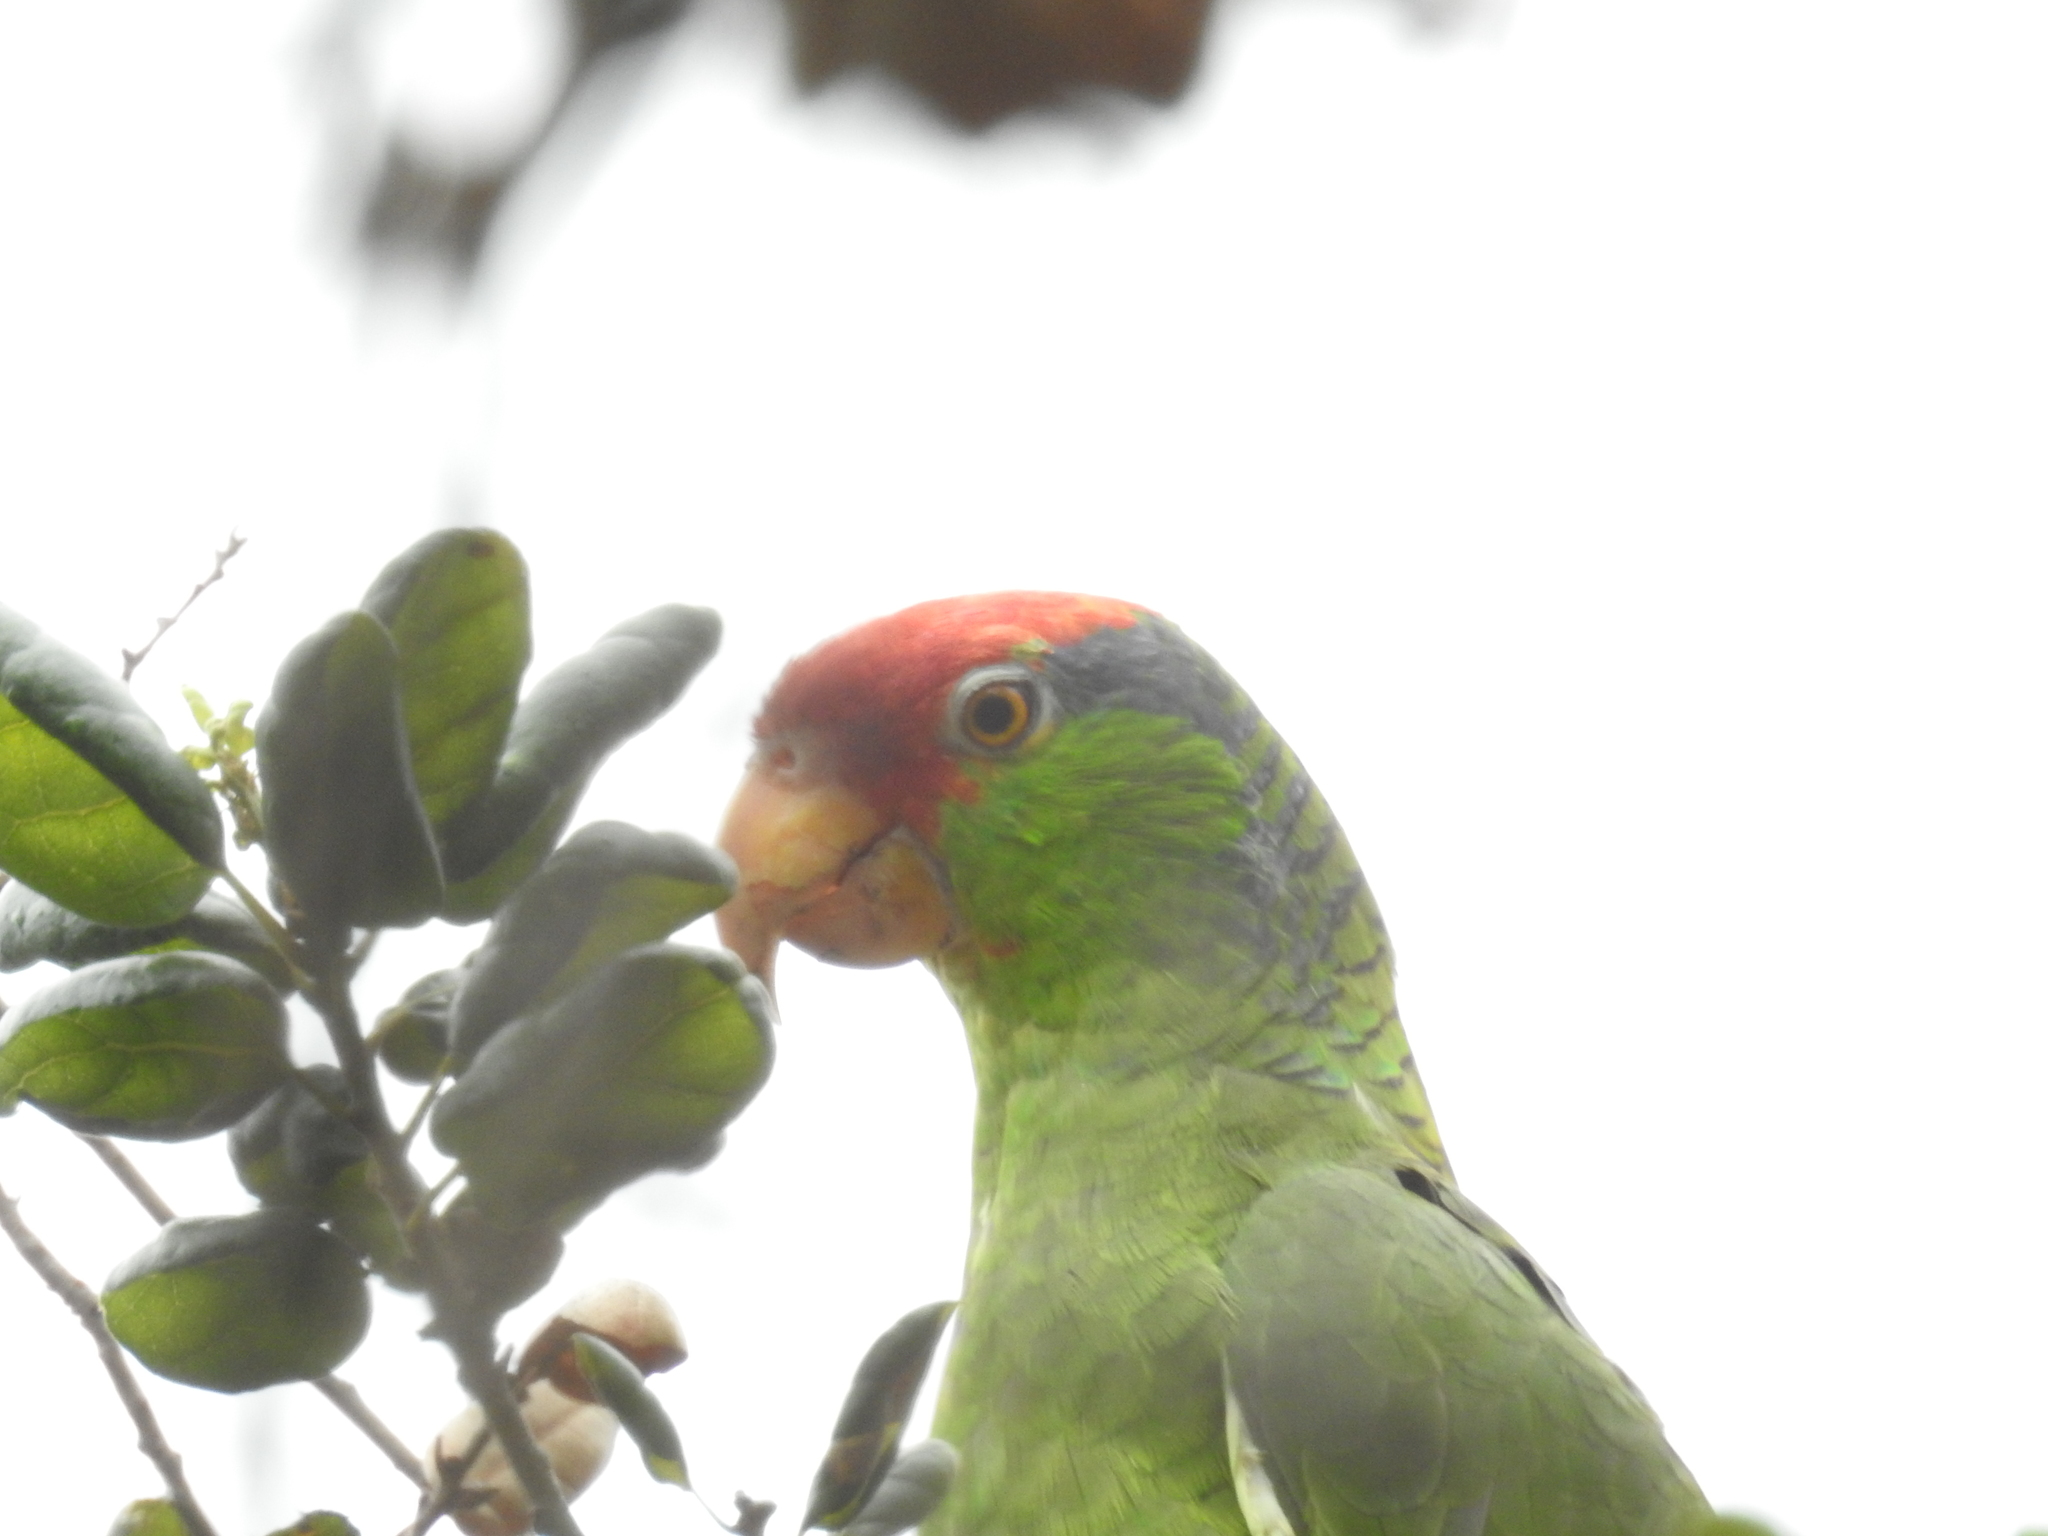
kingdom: Animalia
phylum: Chordata
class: Aves
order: Psittaciformes
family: Psittacidae
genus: Amazona
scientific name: Amazona viridigenalis
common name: Red-crowned amazon
